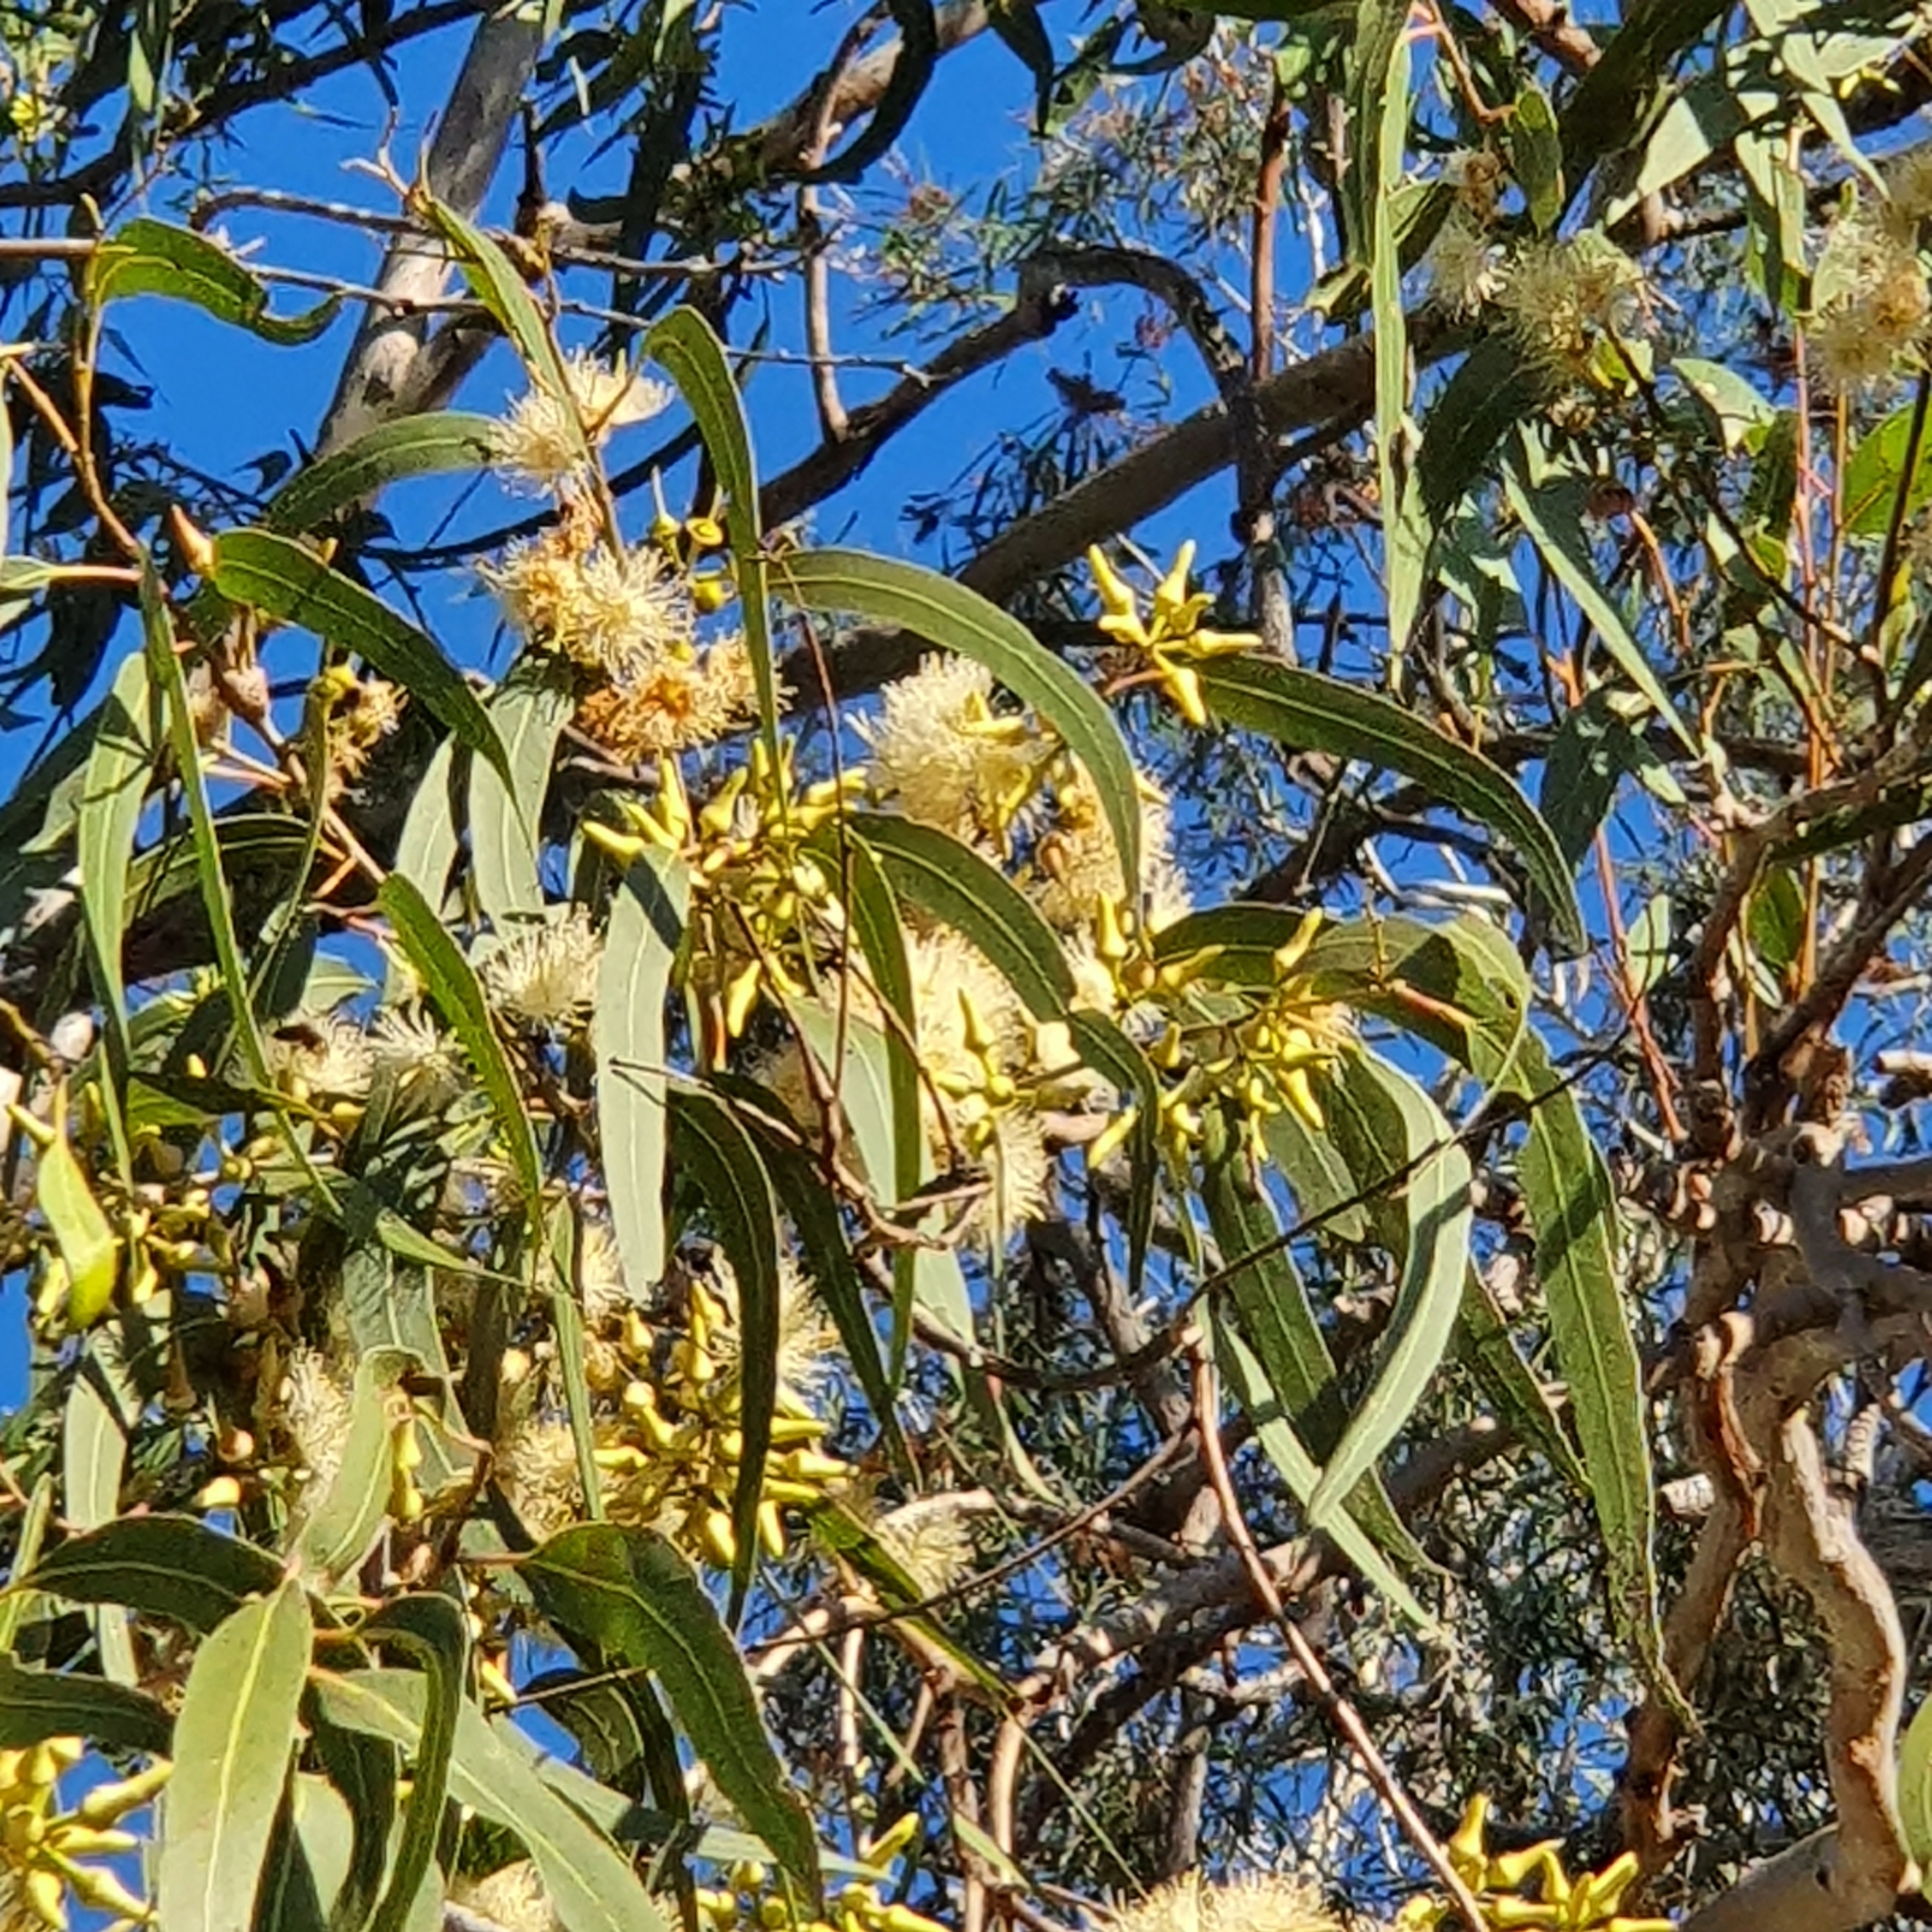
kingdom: Plantae
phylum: Tracheophyta
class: Magnoliopsida
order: Myrtales
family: Myrtaceae
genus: Eucalyptus
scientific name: Eucalyptus tereticornis
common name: Forest redgum
